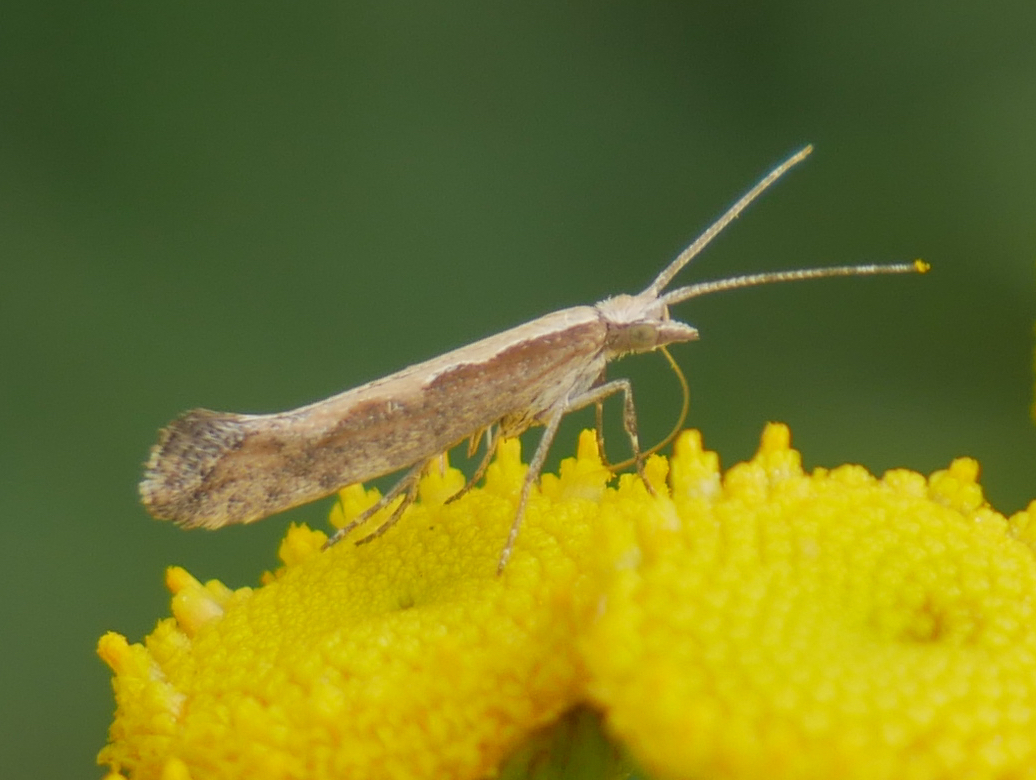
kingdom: Animalia
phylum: Arthropoda
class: Insecta
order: Lepidoptera
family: Plutellidae
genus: Plutella
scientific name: Plutella xylostella
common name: Diamond-back moth
